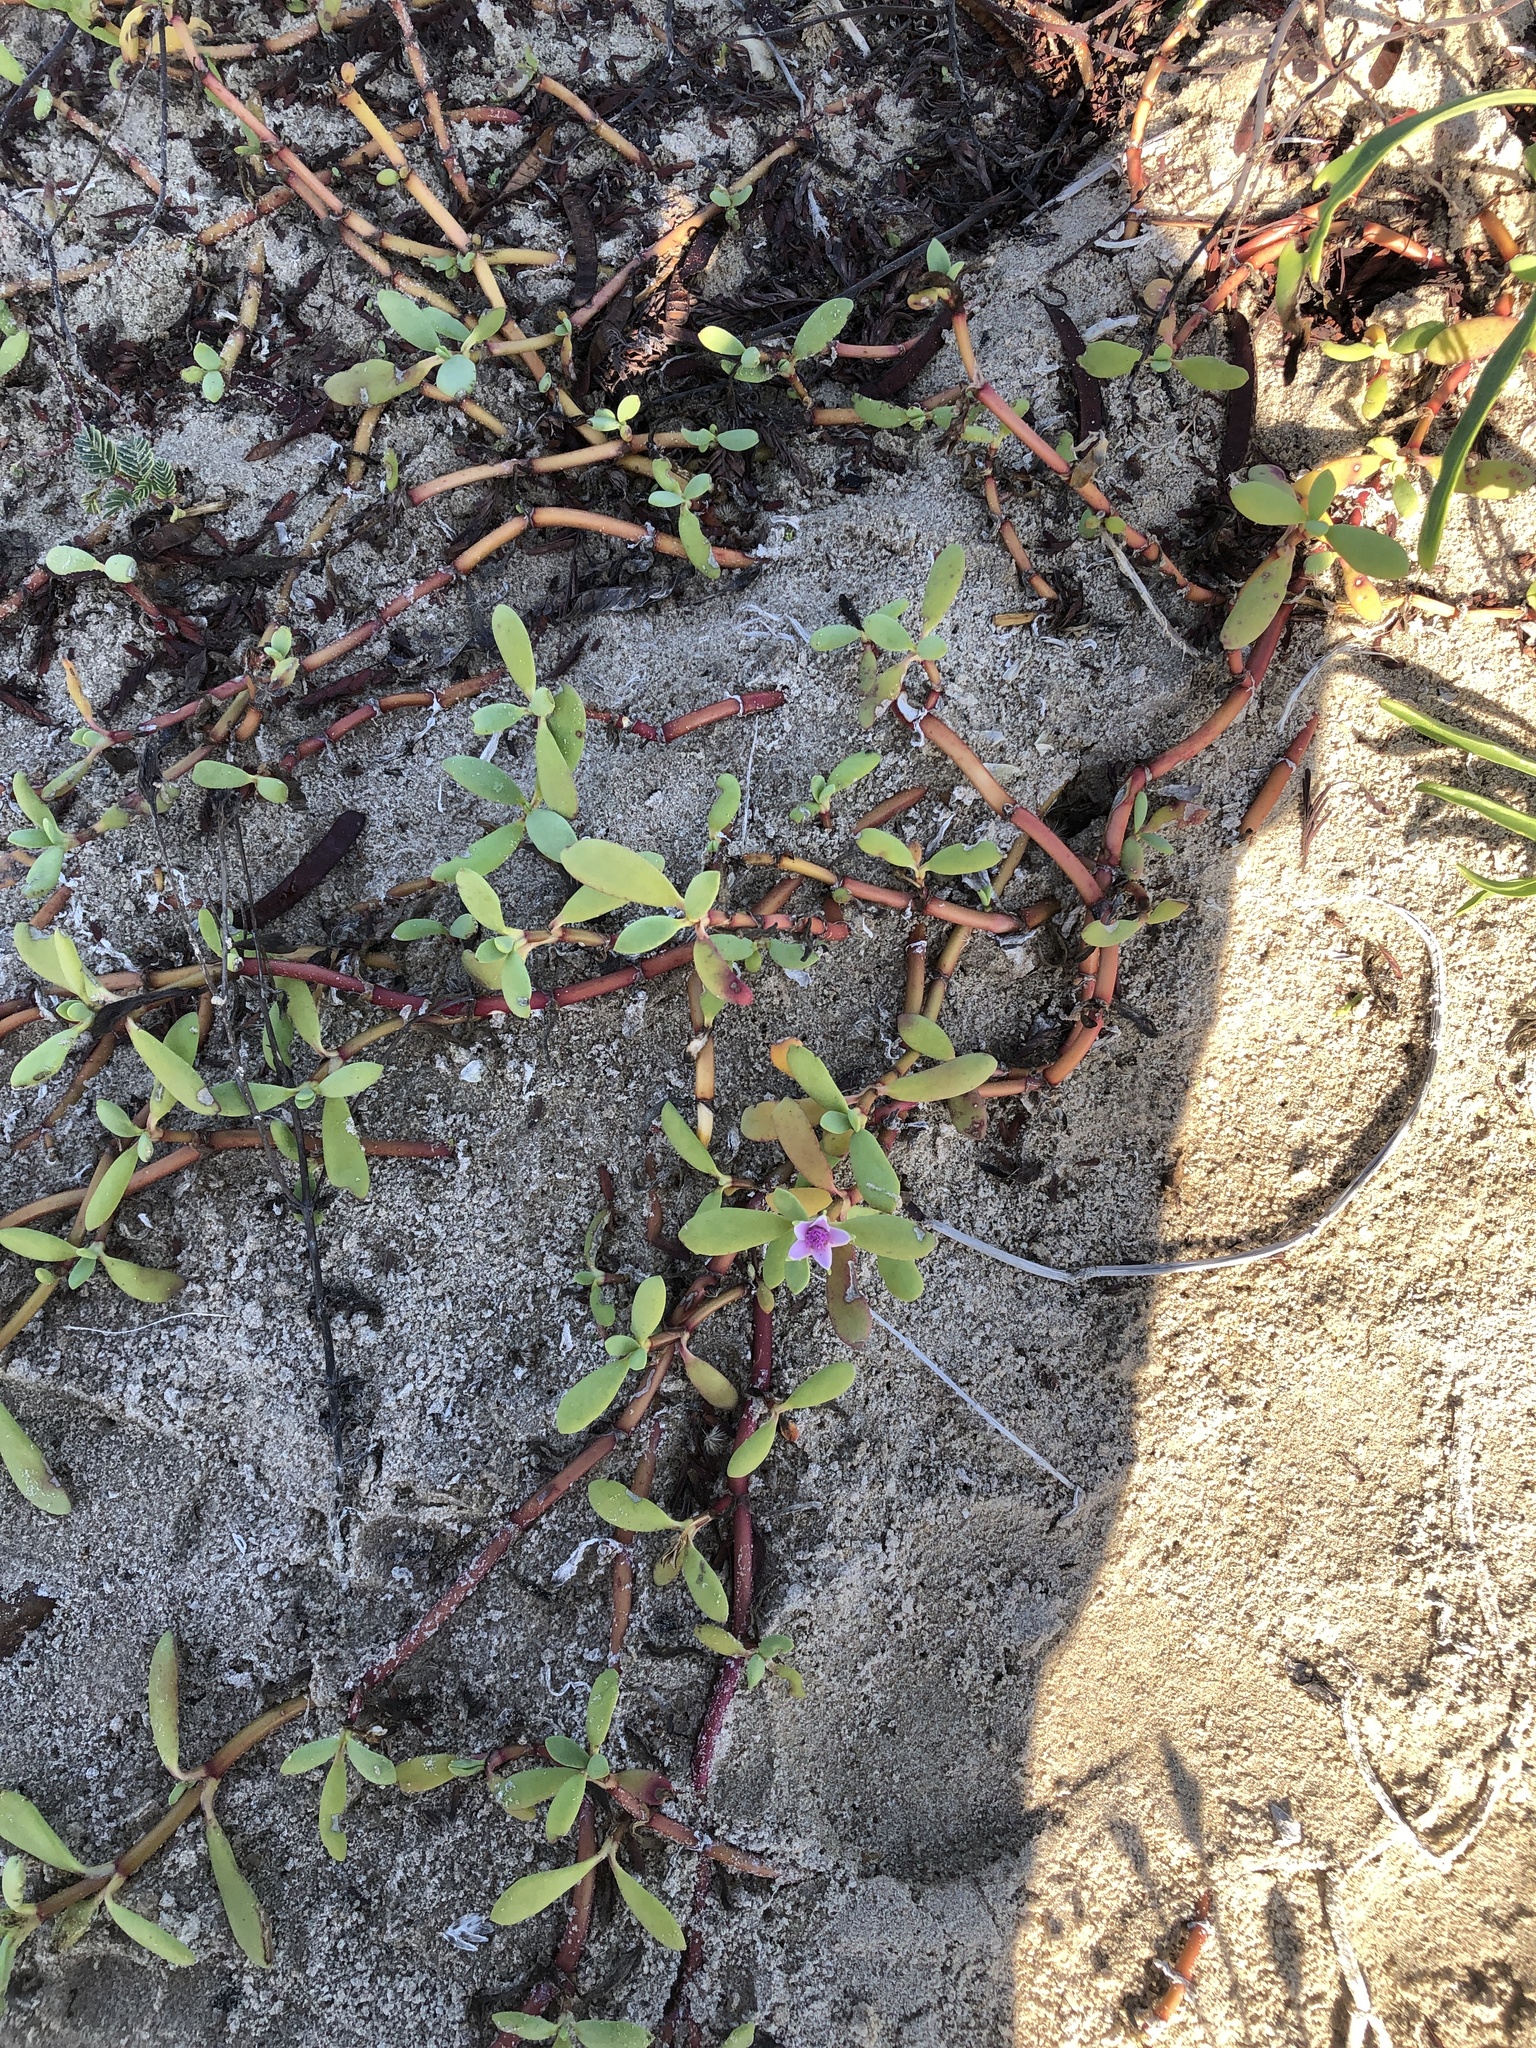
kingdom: Plantae
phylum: Tracheophyta
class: Magnoliopsida
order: Caryophyllales
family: Aizoaceae
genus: Sesuvium
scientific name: Sesuvium portulacastrum
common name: Sea-purslane
